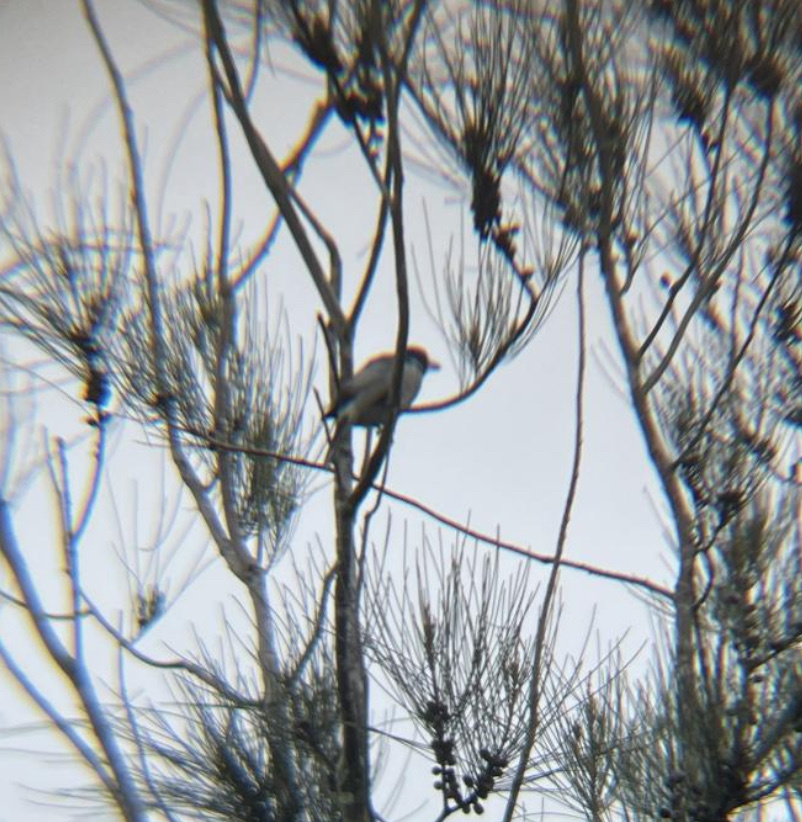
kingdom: Animalia
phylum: Chordata
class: Aves
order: Passeriformes
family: Cracticidae
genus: Cracticus
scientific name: Cracticus torquatus
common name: Grey butcherbird
